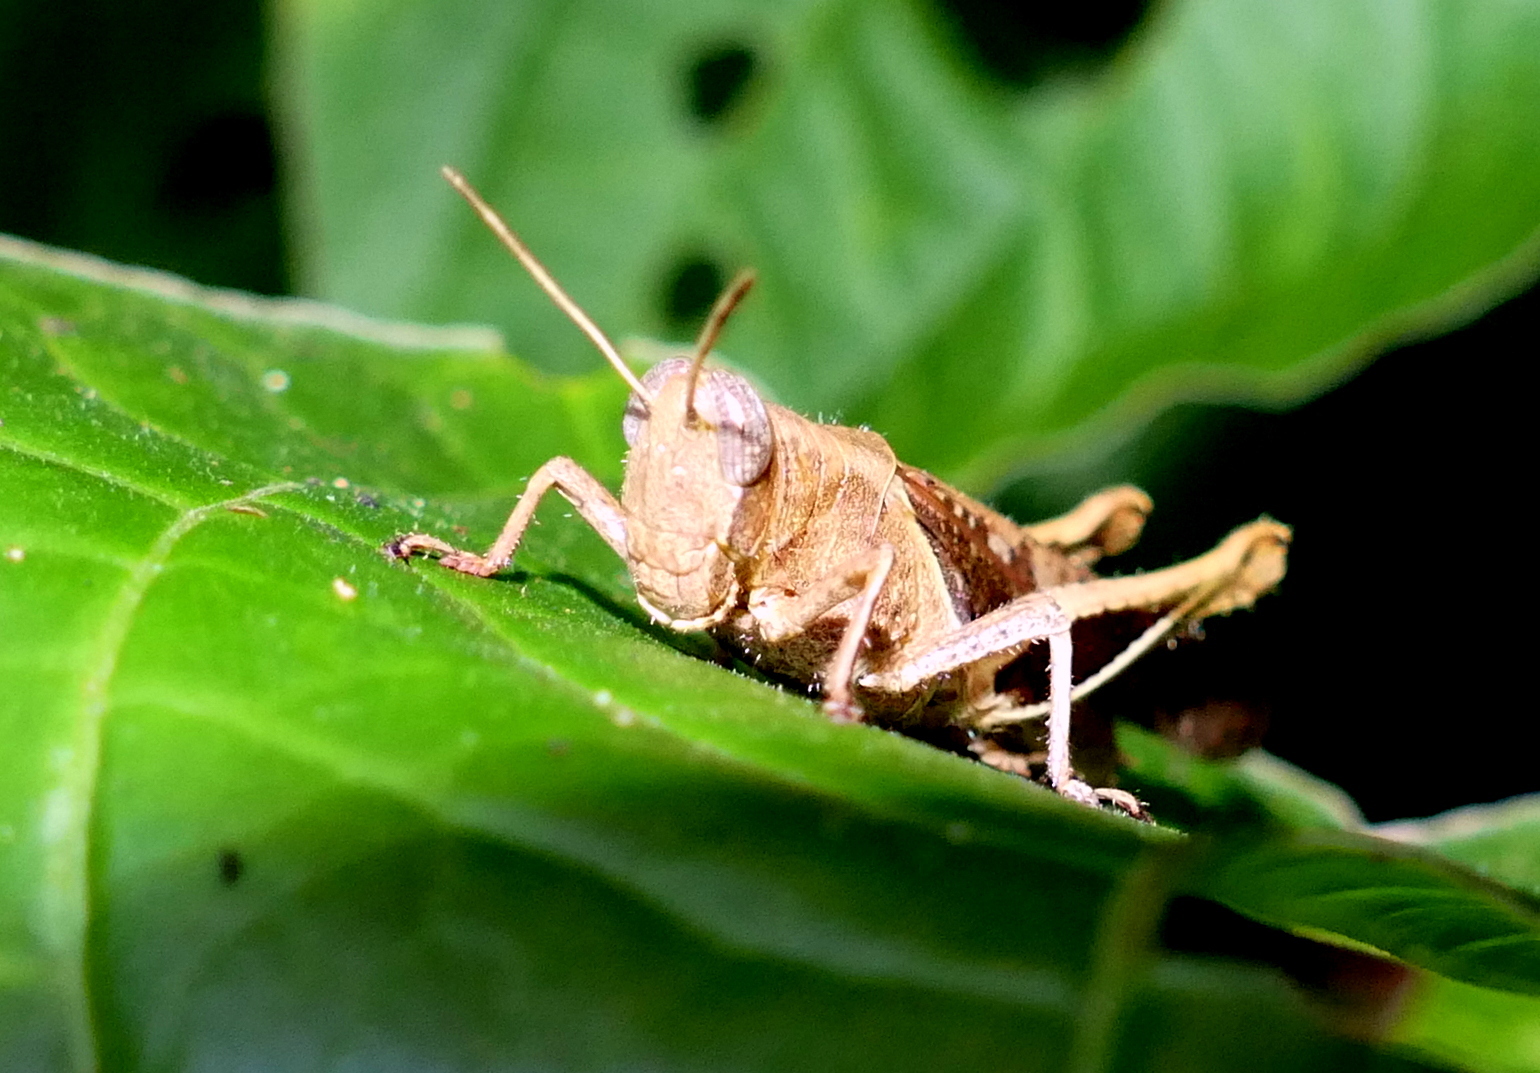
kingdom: Animalia
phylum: Arthropoda
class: Insecta
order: Orthoptera
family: Acrididae
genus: Abracris
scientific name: Abracris flavolineata
